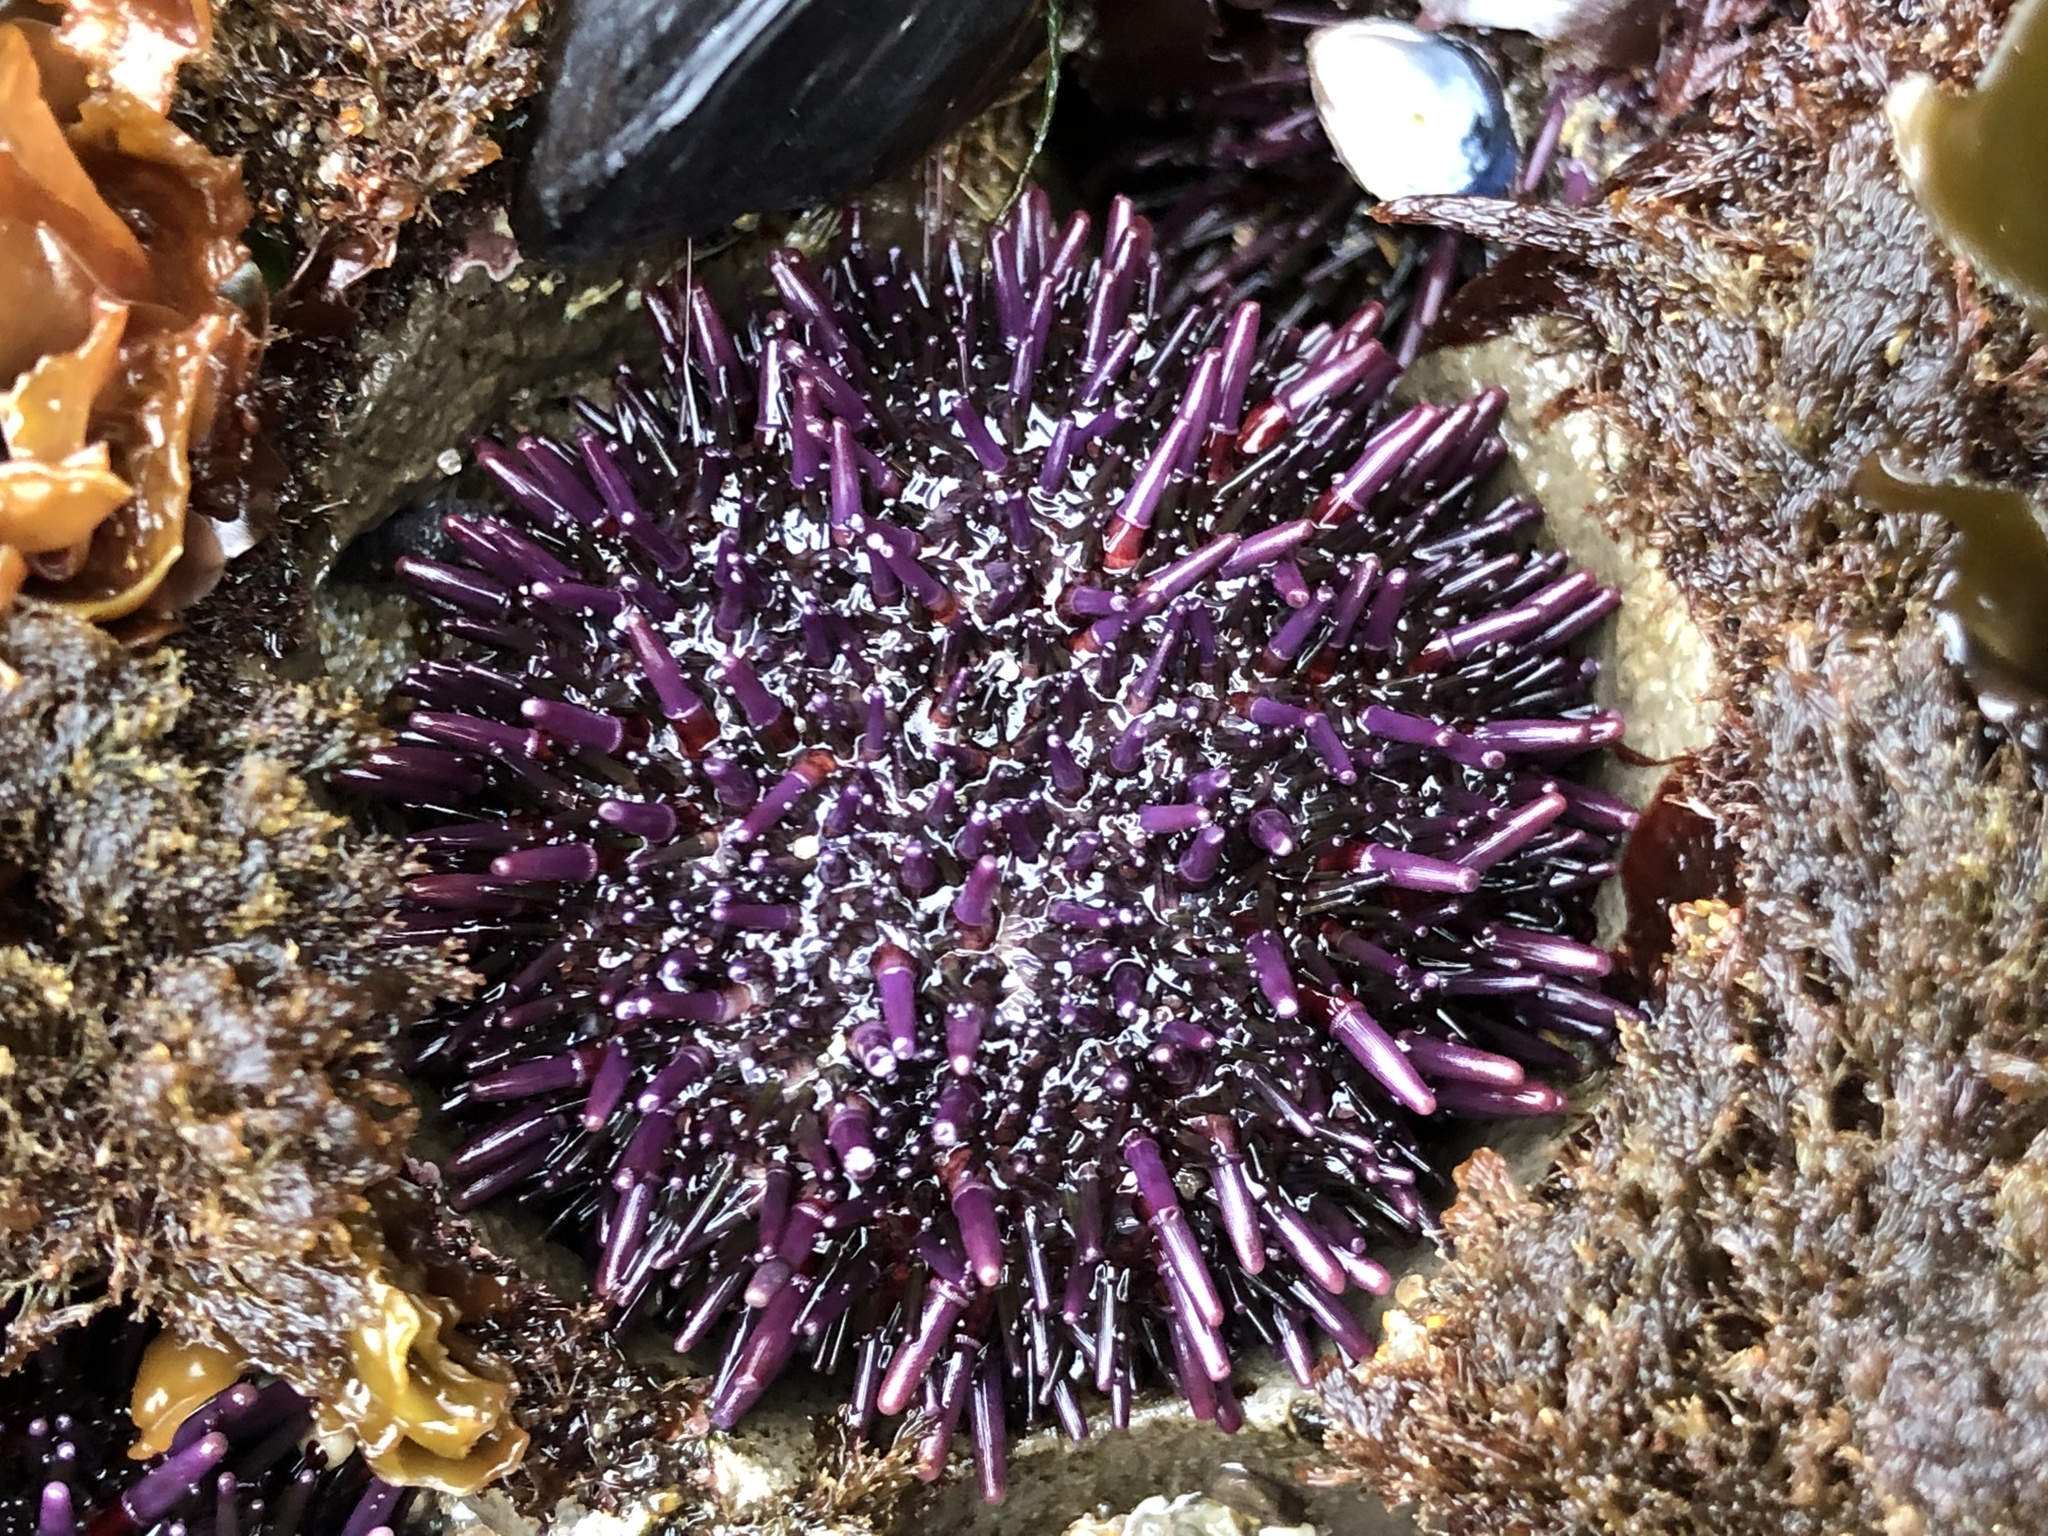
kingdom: Animalia
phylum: Echinodermata
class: Echinoidea
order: Camarodonta
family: Strongylocentrotidae
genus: Strongylocentrotus
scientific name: Strongylocentrotus purpuratus
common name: Purple sea urchin
